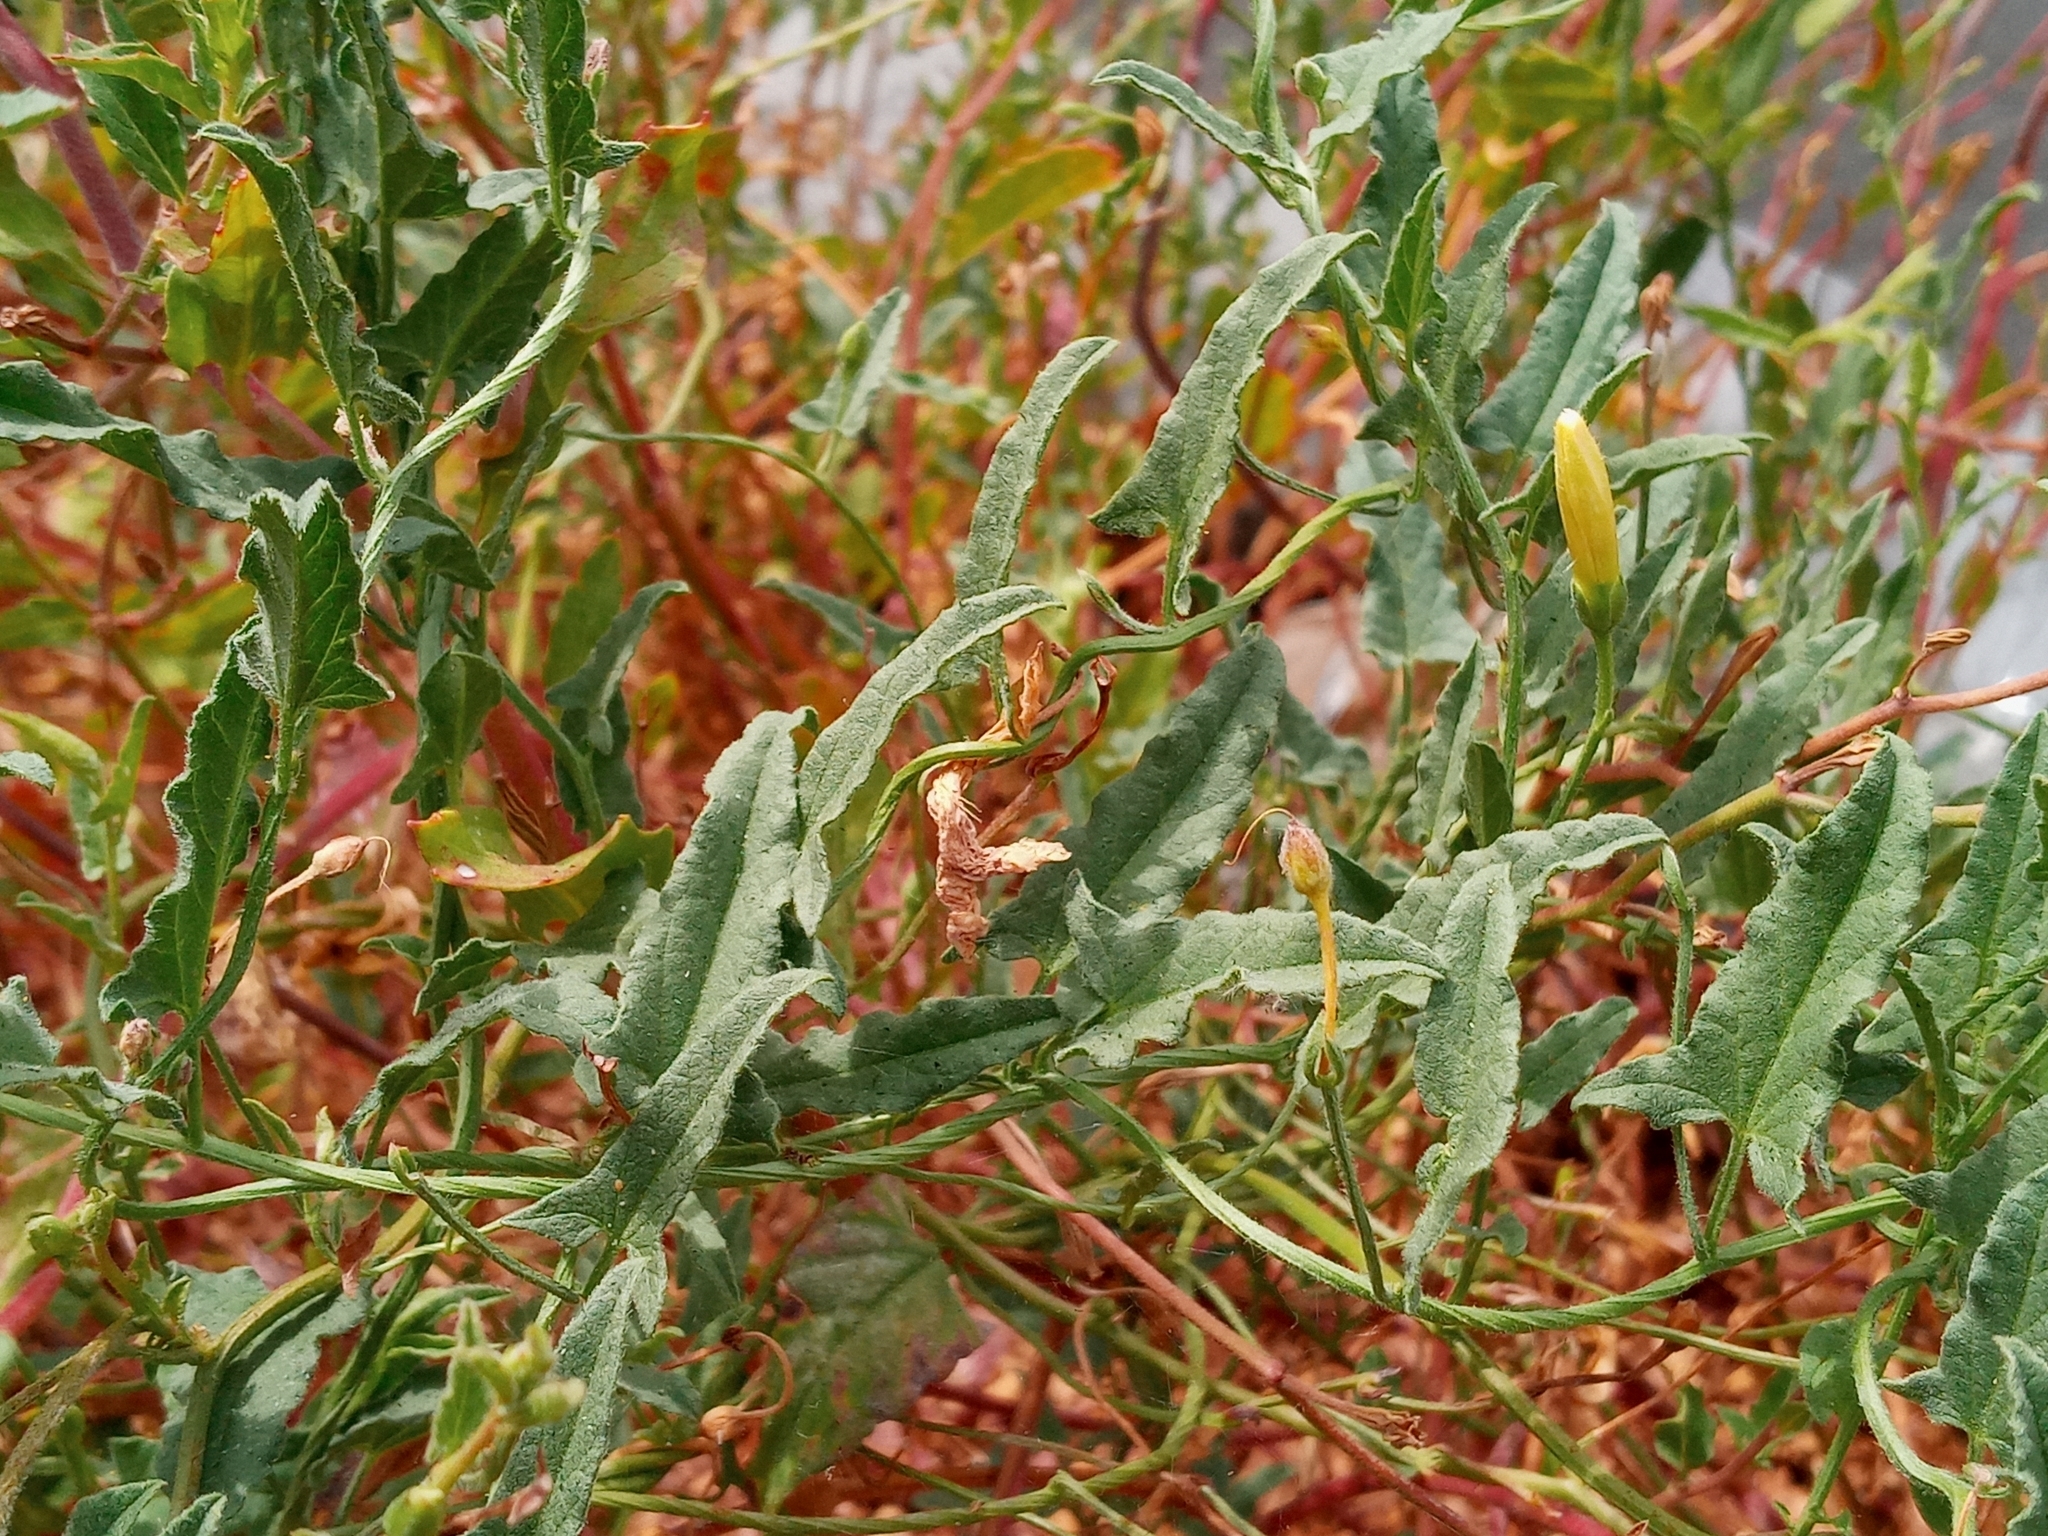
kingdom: Plantae
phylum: Tracheophyta
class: Magnoliopsida
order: Solanales
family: Convolvulaceae
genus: Calystegia
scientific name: Calystegia macrostegia
